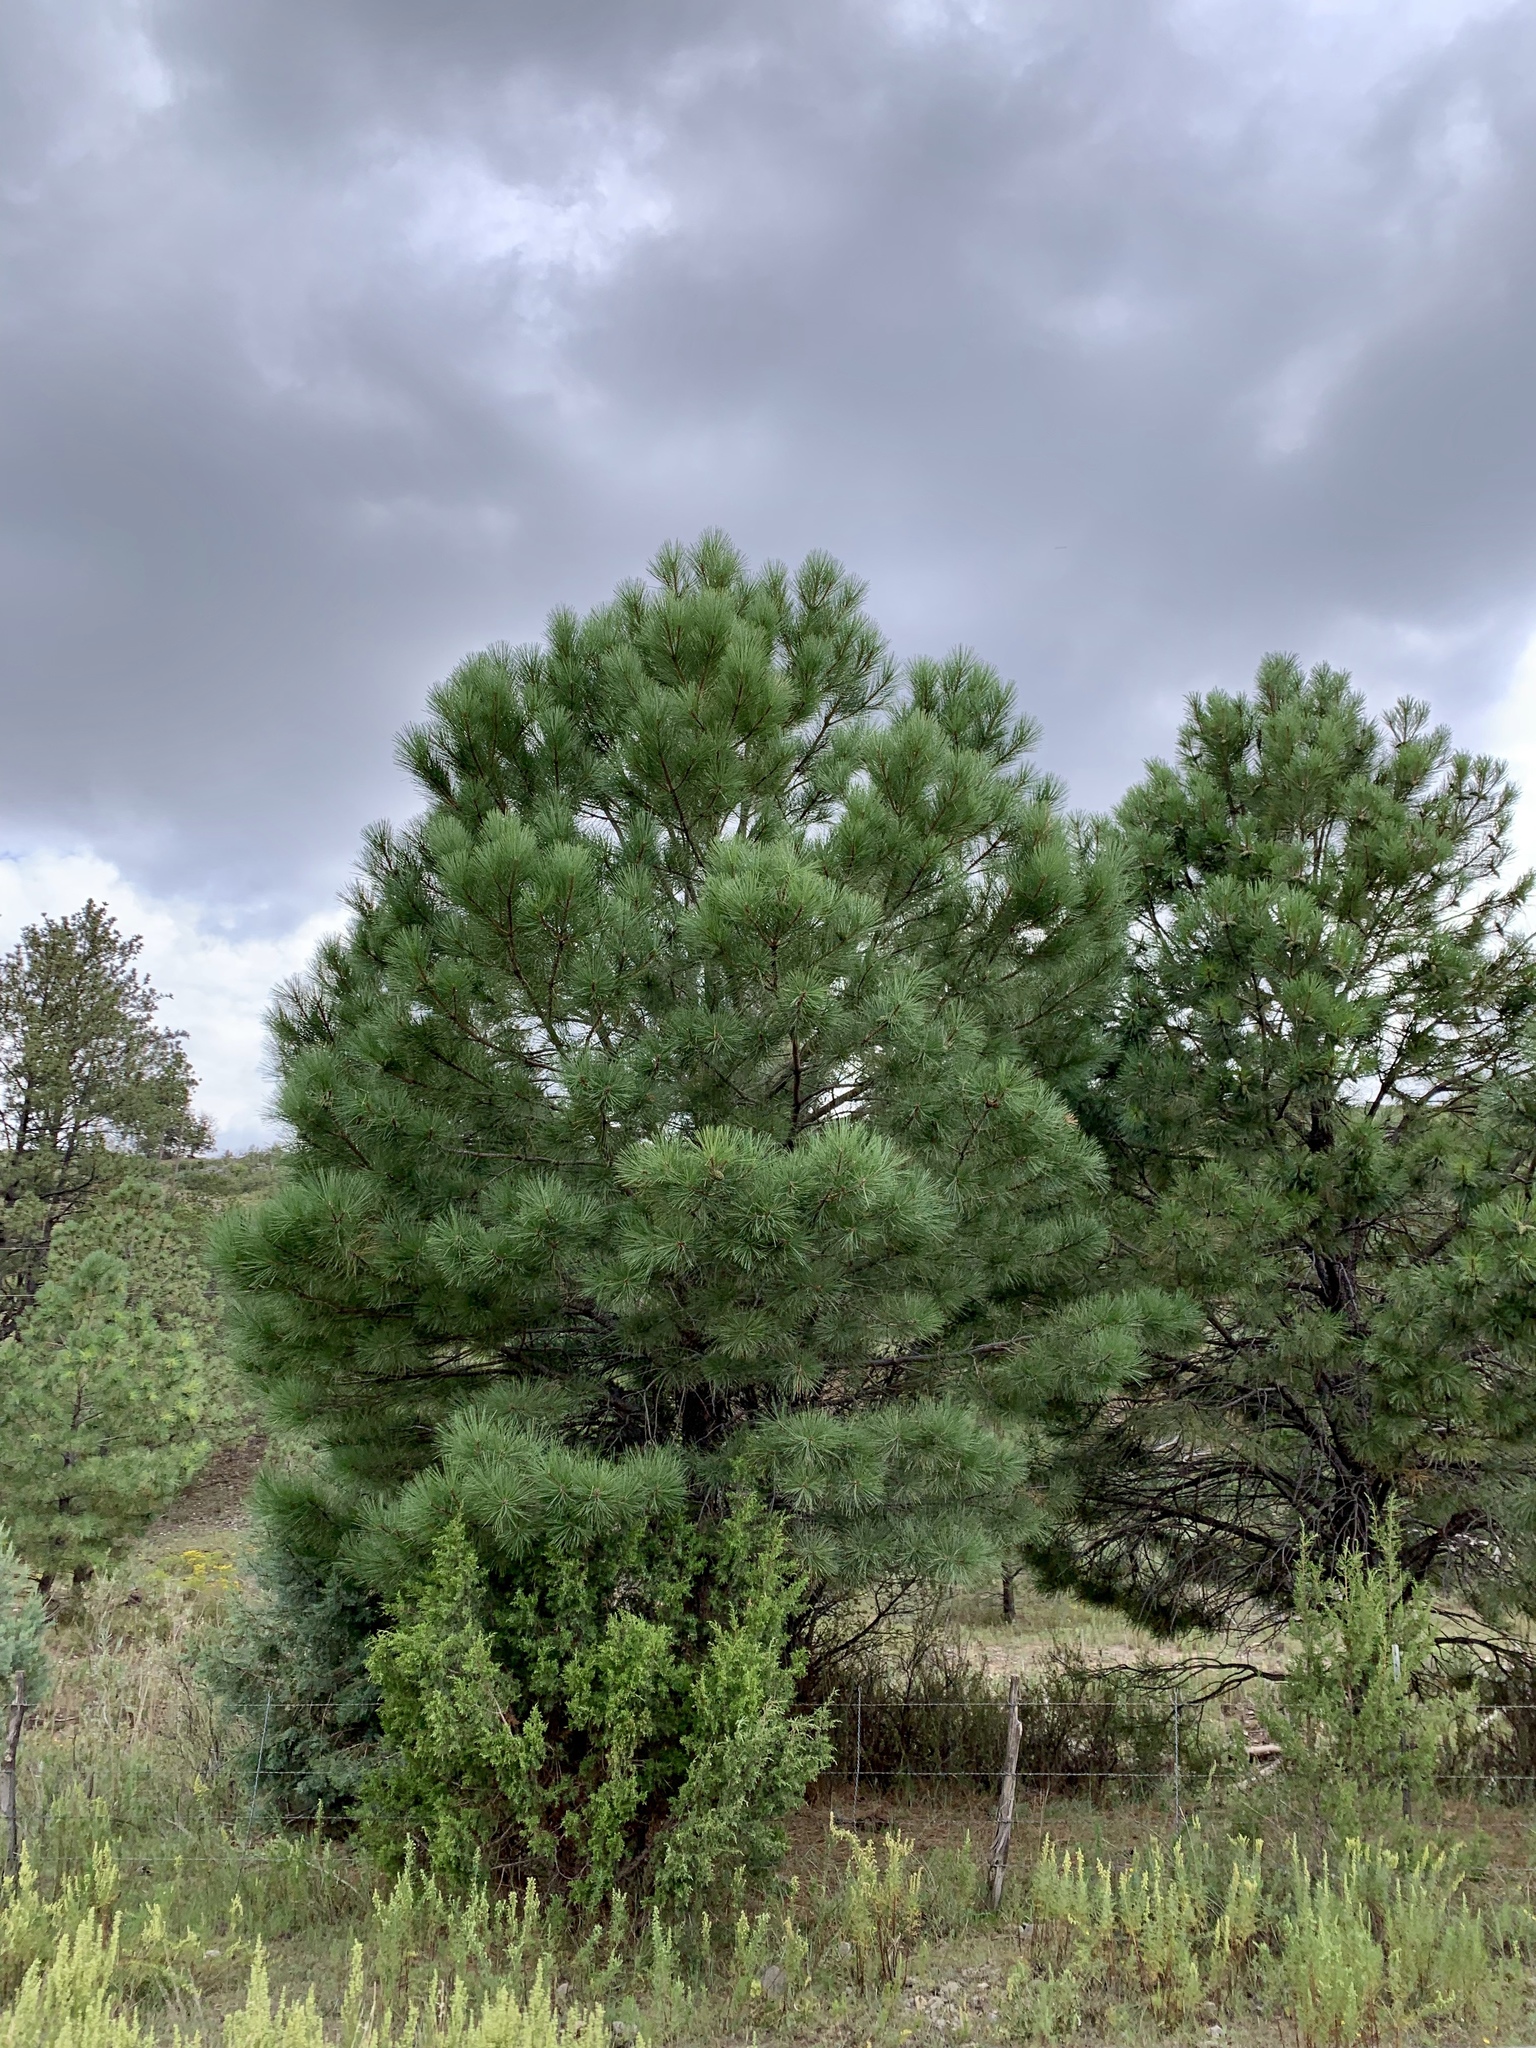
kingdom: Plantae
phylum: Tracheophyta
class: Pinopsida
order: Pinales
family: Pinaceae
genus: Pinus
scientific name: Pinus ponderosa
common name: Western yellow-pine
